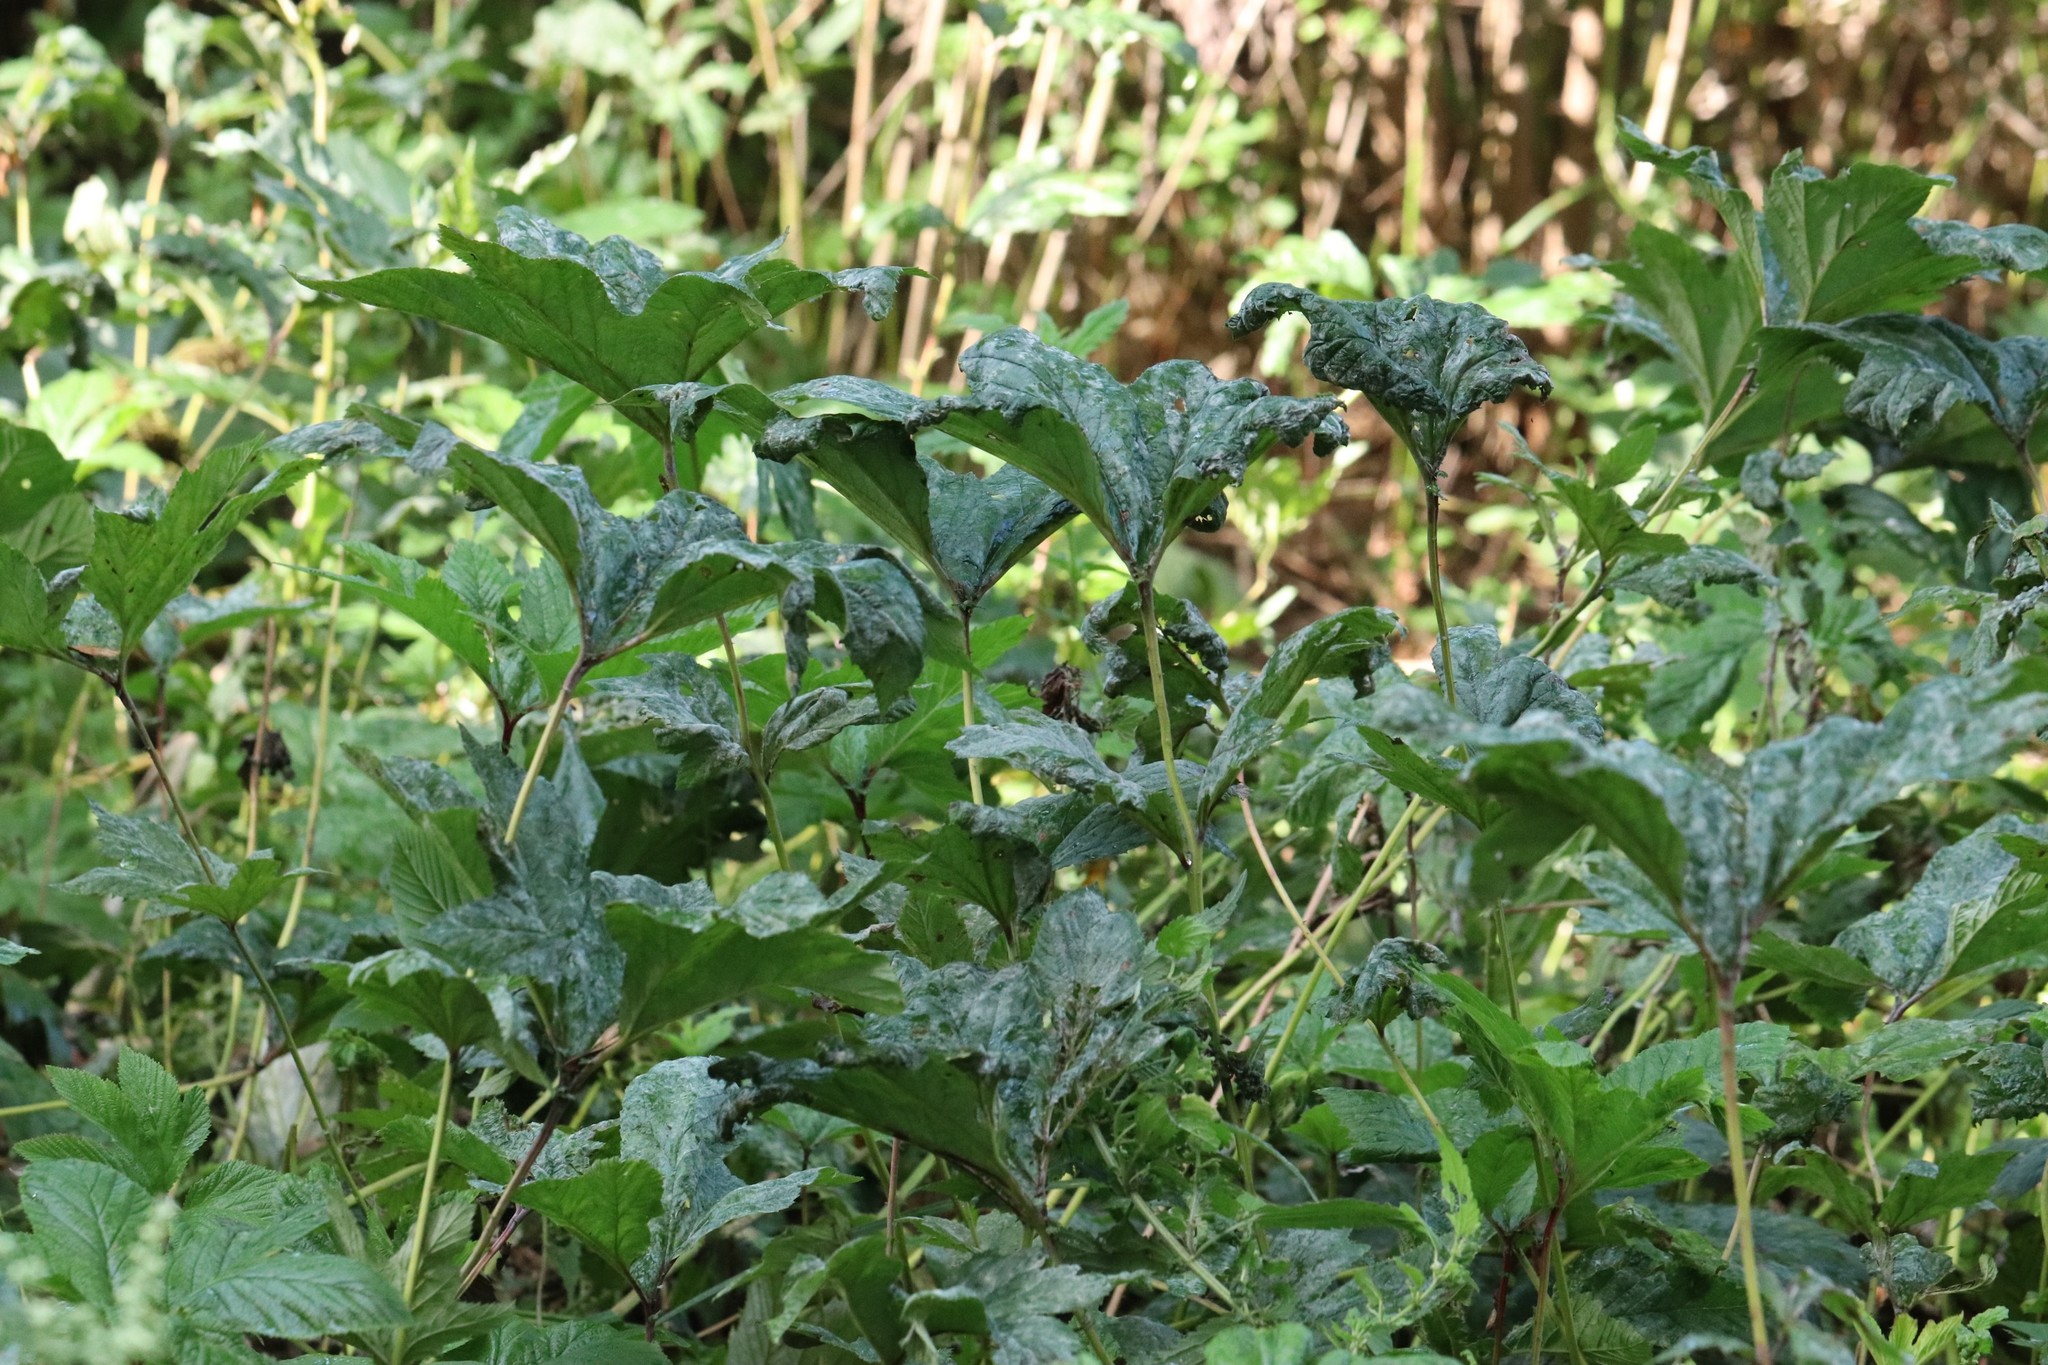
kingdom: Plantae
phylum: Tracheophyta
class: Magnoliopsida
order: Rosales
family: Rosaceae
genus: Filipendula
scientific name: Filipendula digitata
